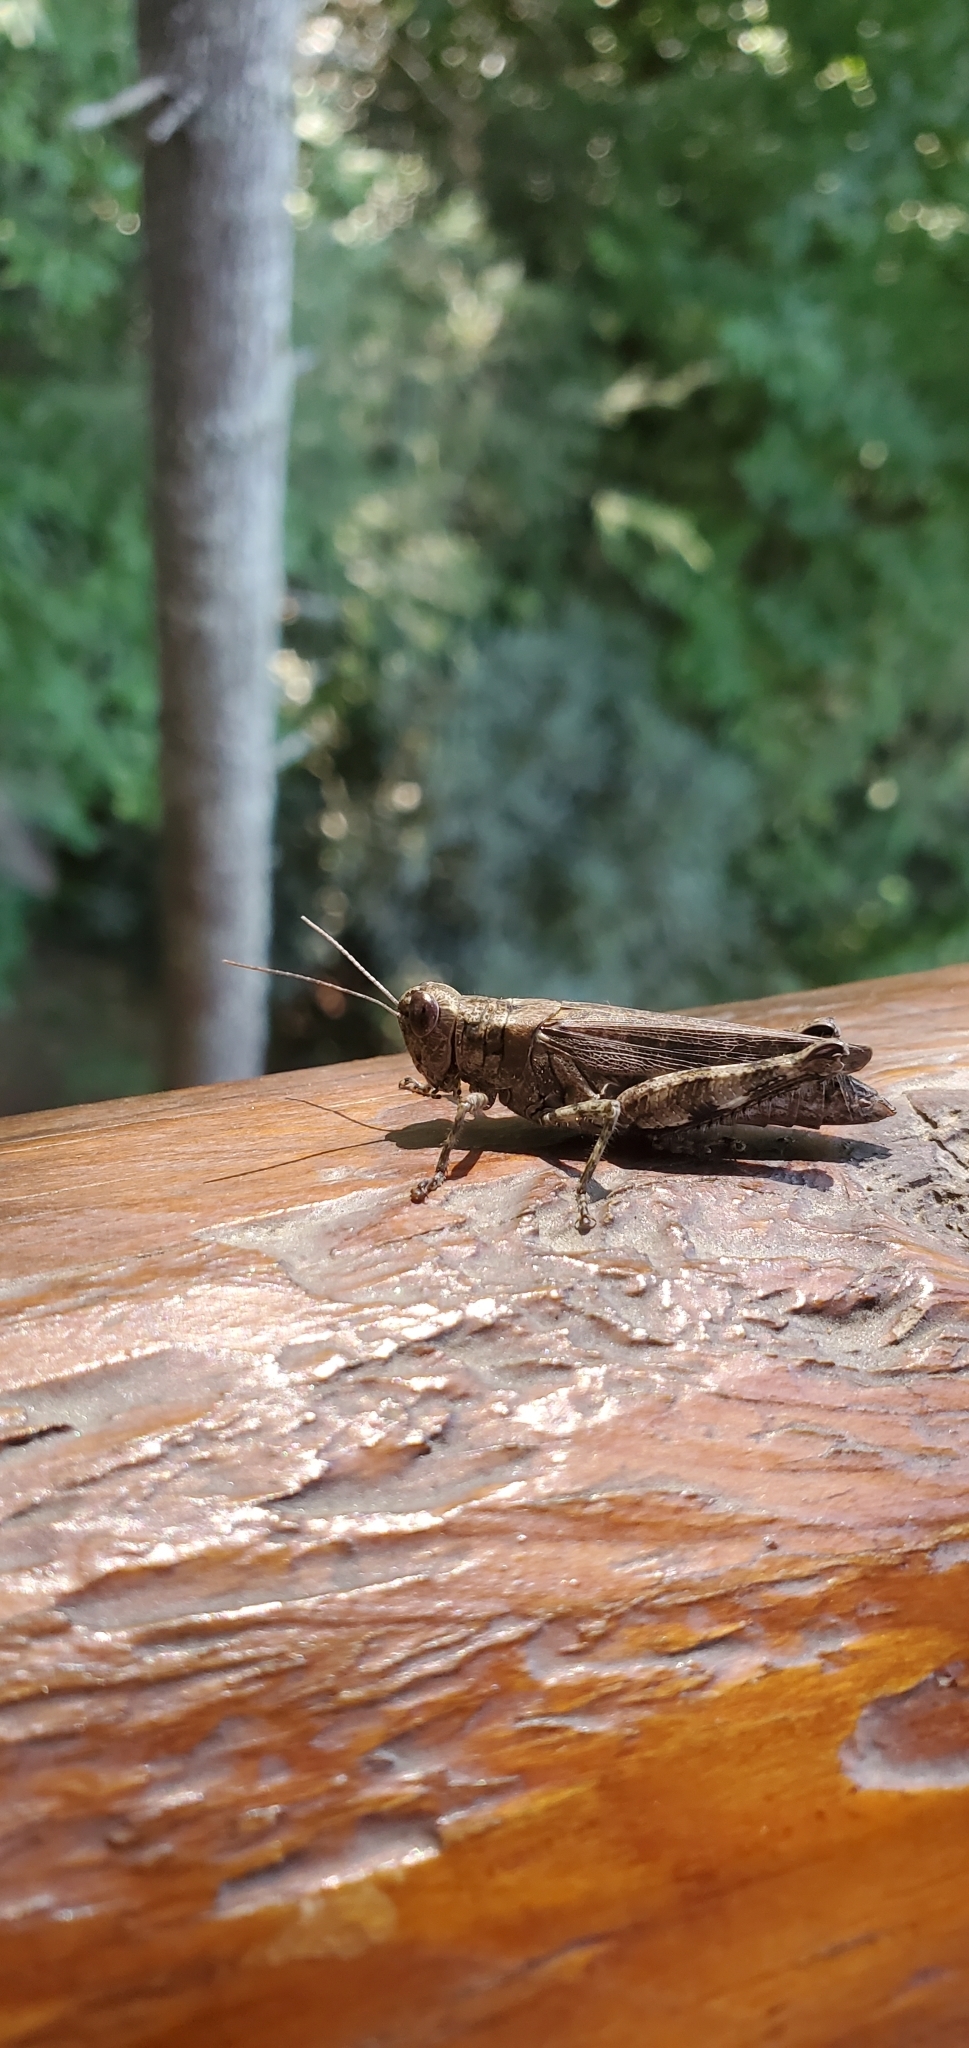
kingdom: Animalia
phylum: Arthropoda
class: Insecta
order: Orthoptera
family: Acrididae
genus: Melanoplus
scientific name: Melanoplus punctulatus
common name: Pine-tree spur-throat grasshopper
